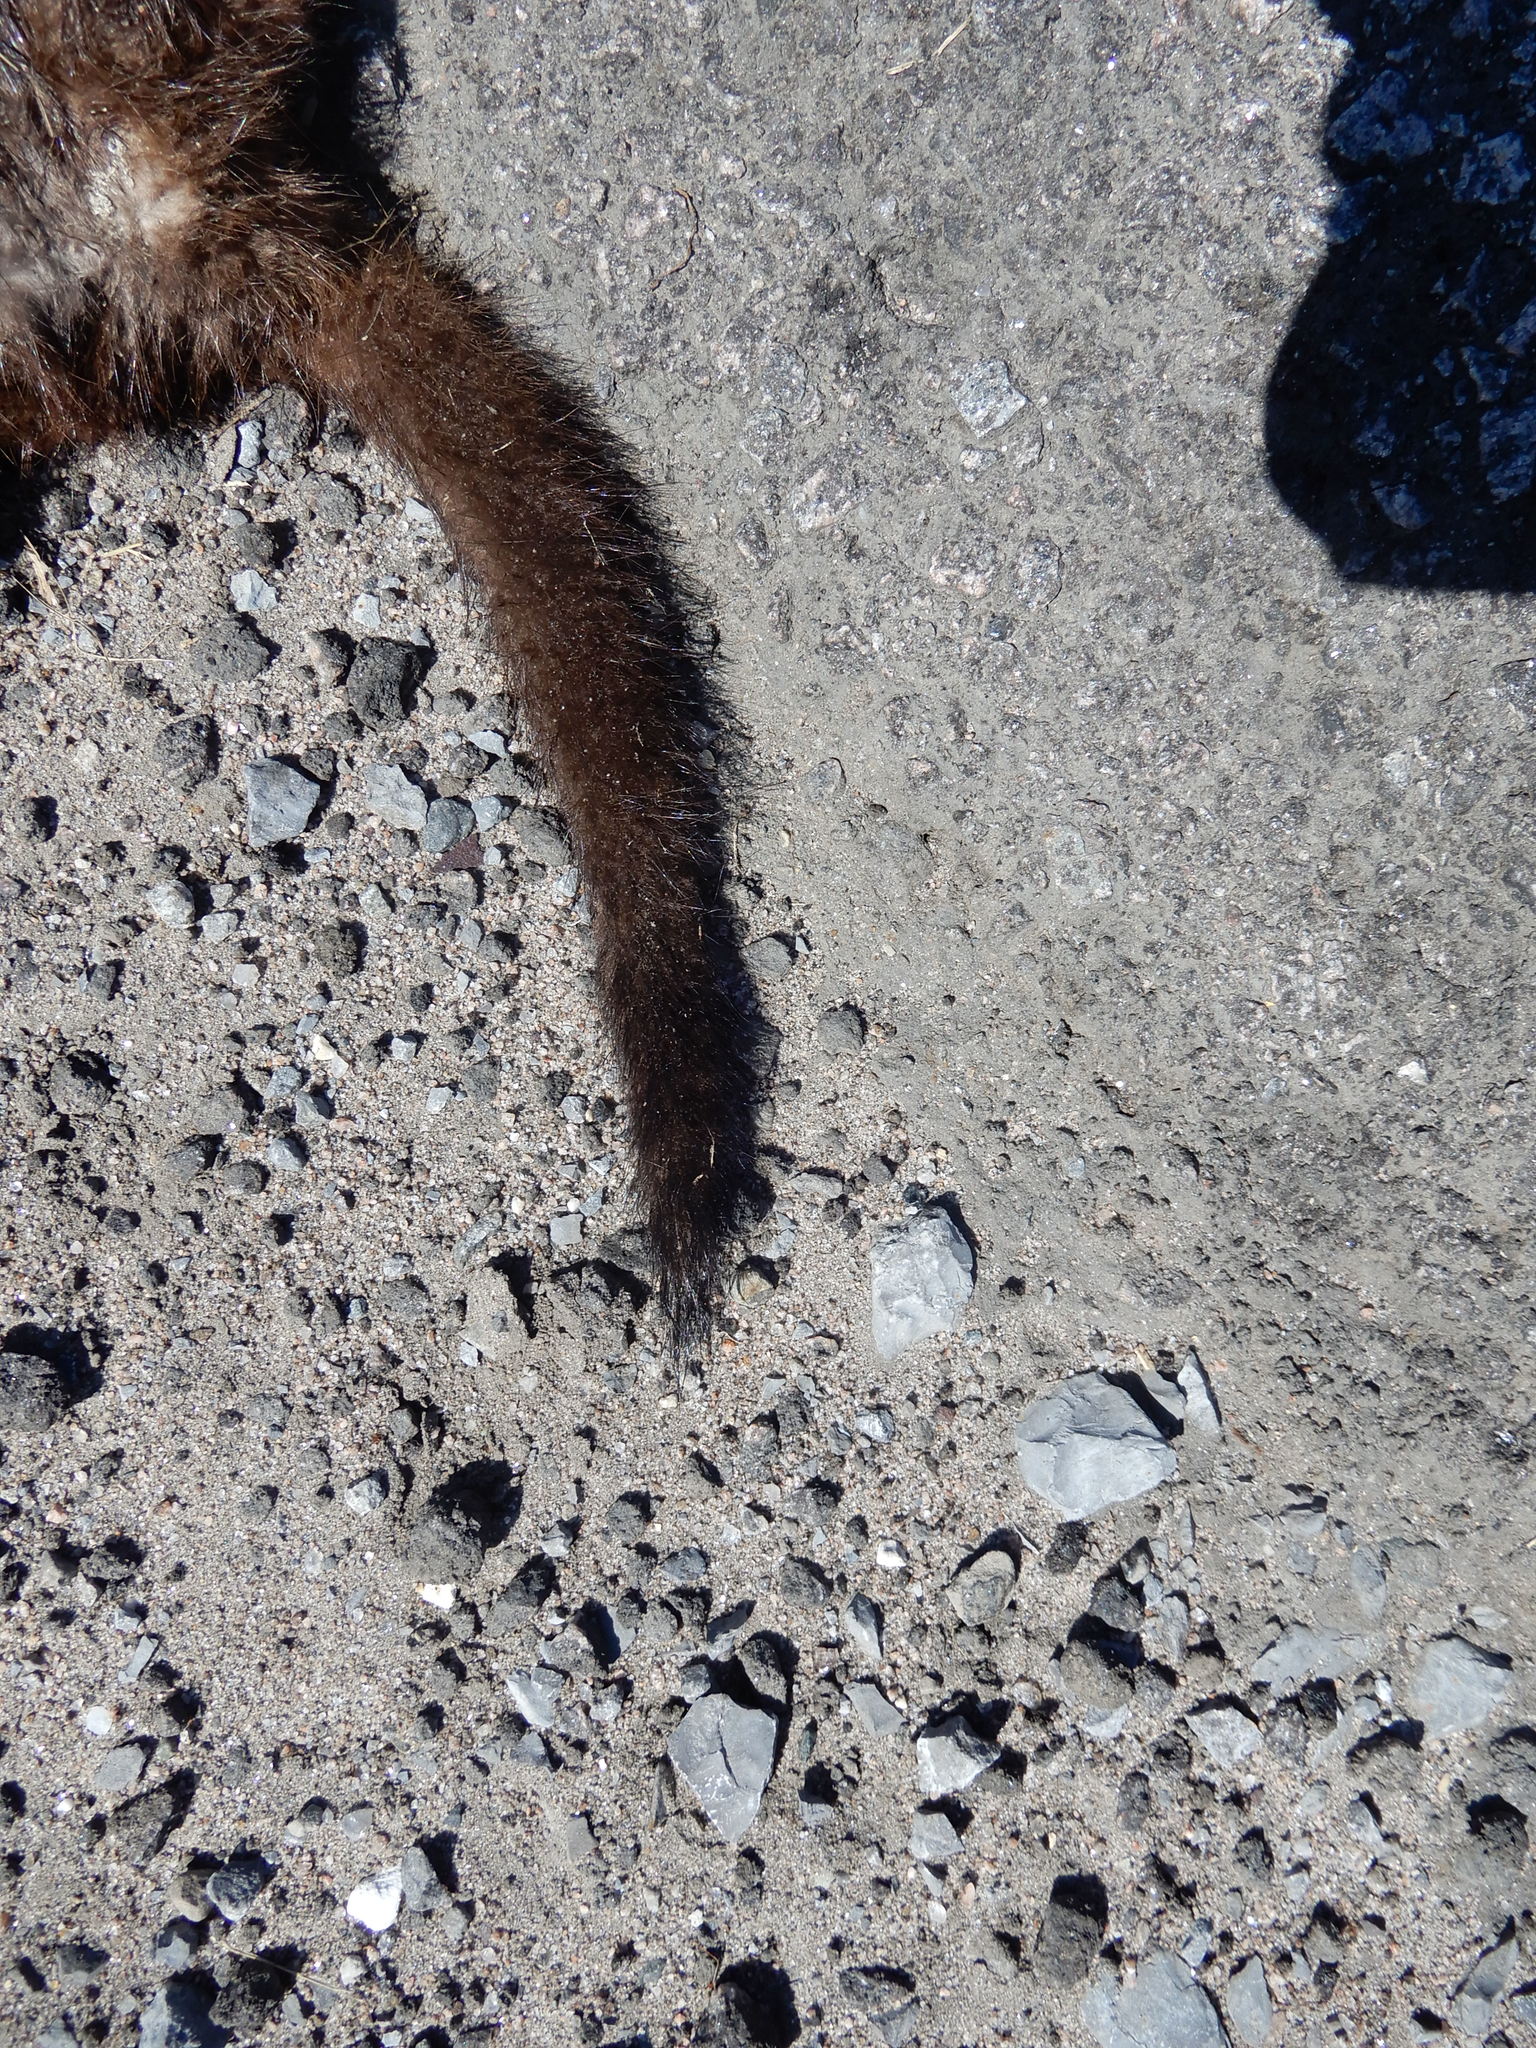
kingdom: Animalia
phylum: Chordata
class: Mammalia
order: Carnivora
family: Mustelidae
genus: Mustela
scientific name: Mustela
